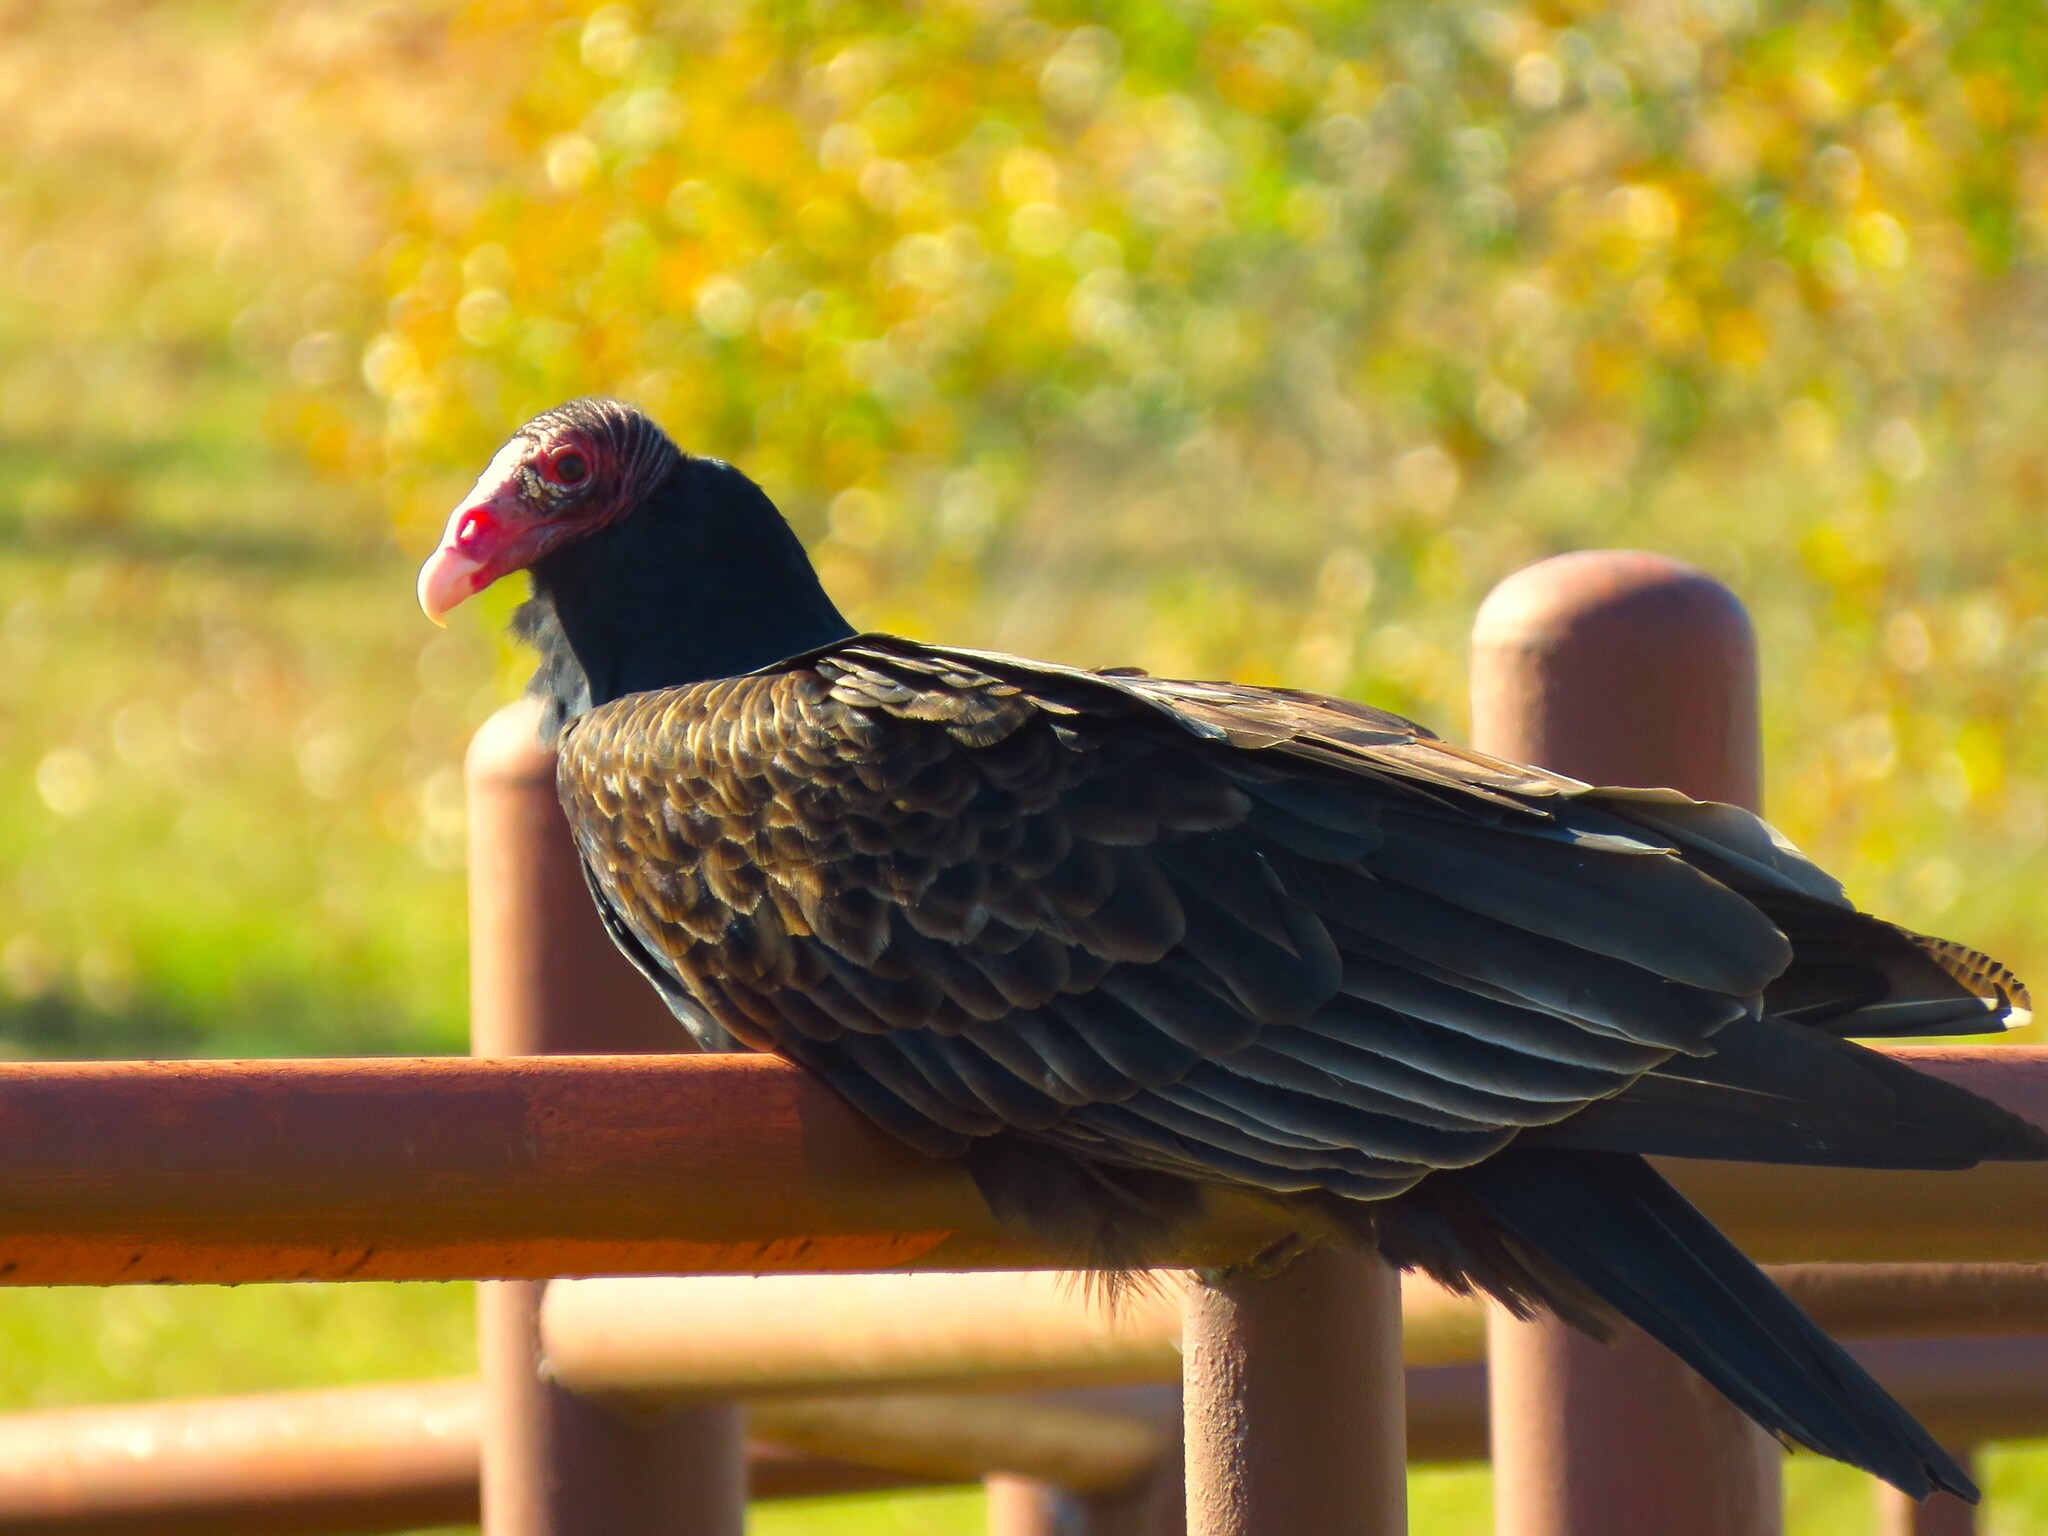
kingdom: Animalia
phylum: Chordata
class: Aves
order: Accipitriformes
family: Cathartidae
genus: Cathartes
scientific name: Cathartes aura
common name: Turkey vulture
